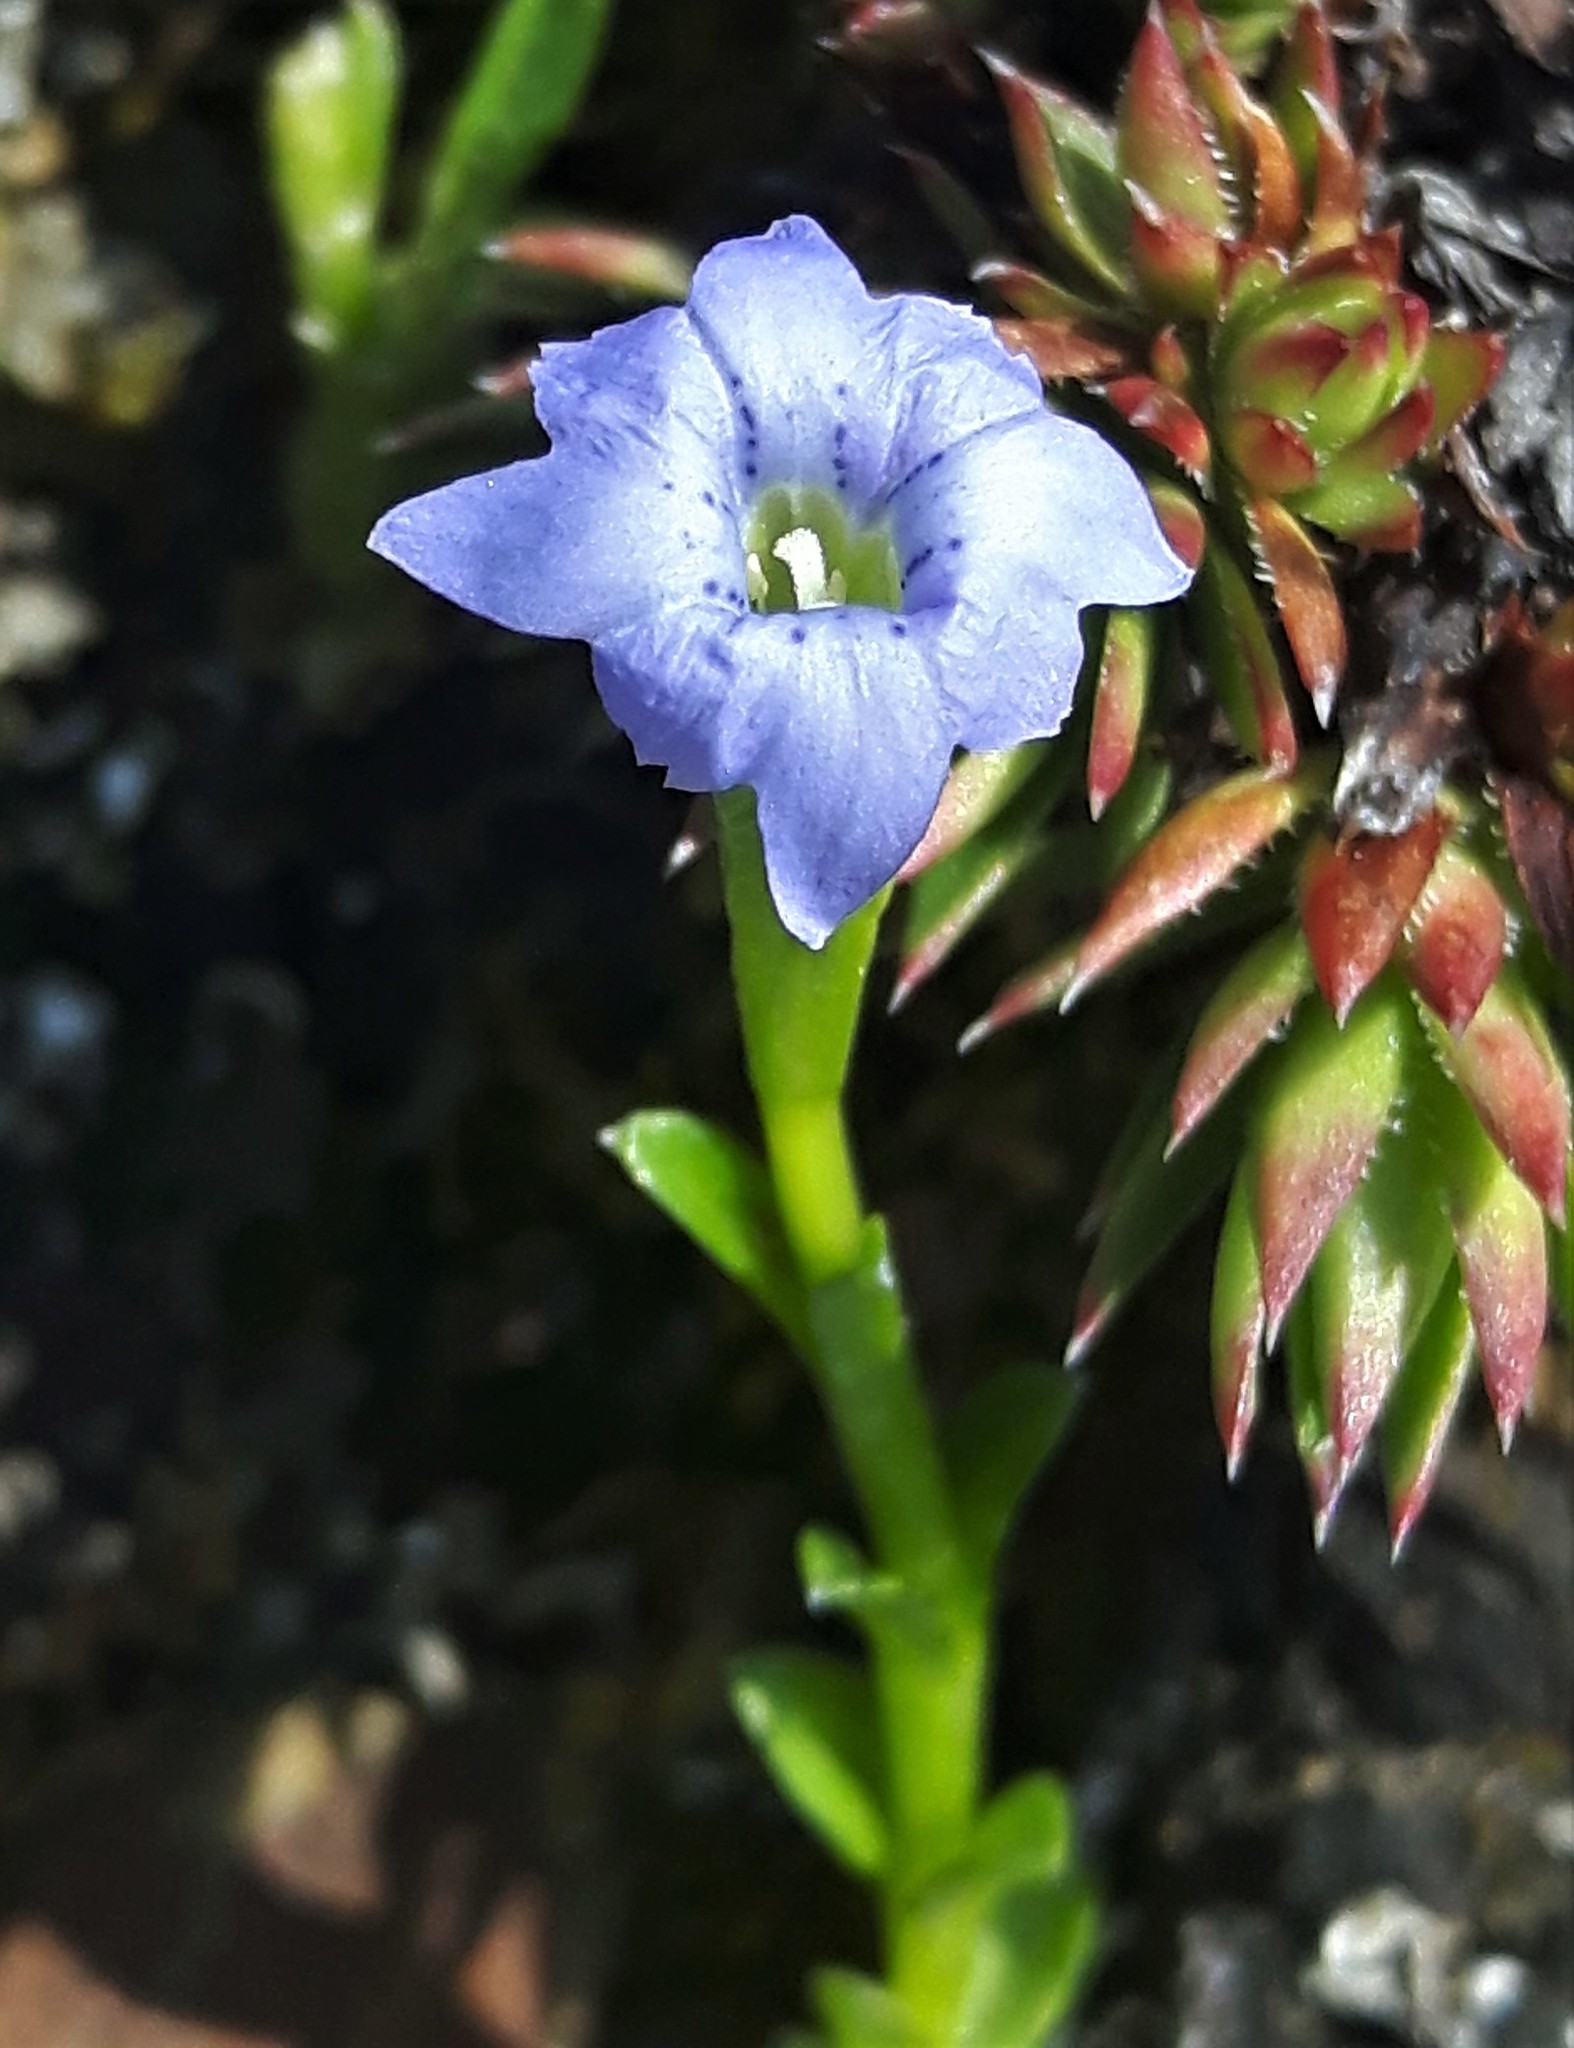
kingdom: Plantae
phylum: Tracheophyta
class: Magnoliopsida
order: Gentianales
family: Gentianaceae
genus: Gentiana
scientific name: Gentiana prostrata
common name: Moss gentian
